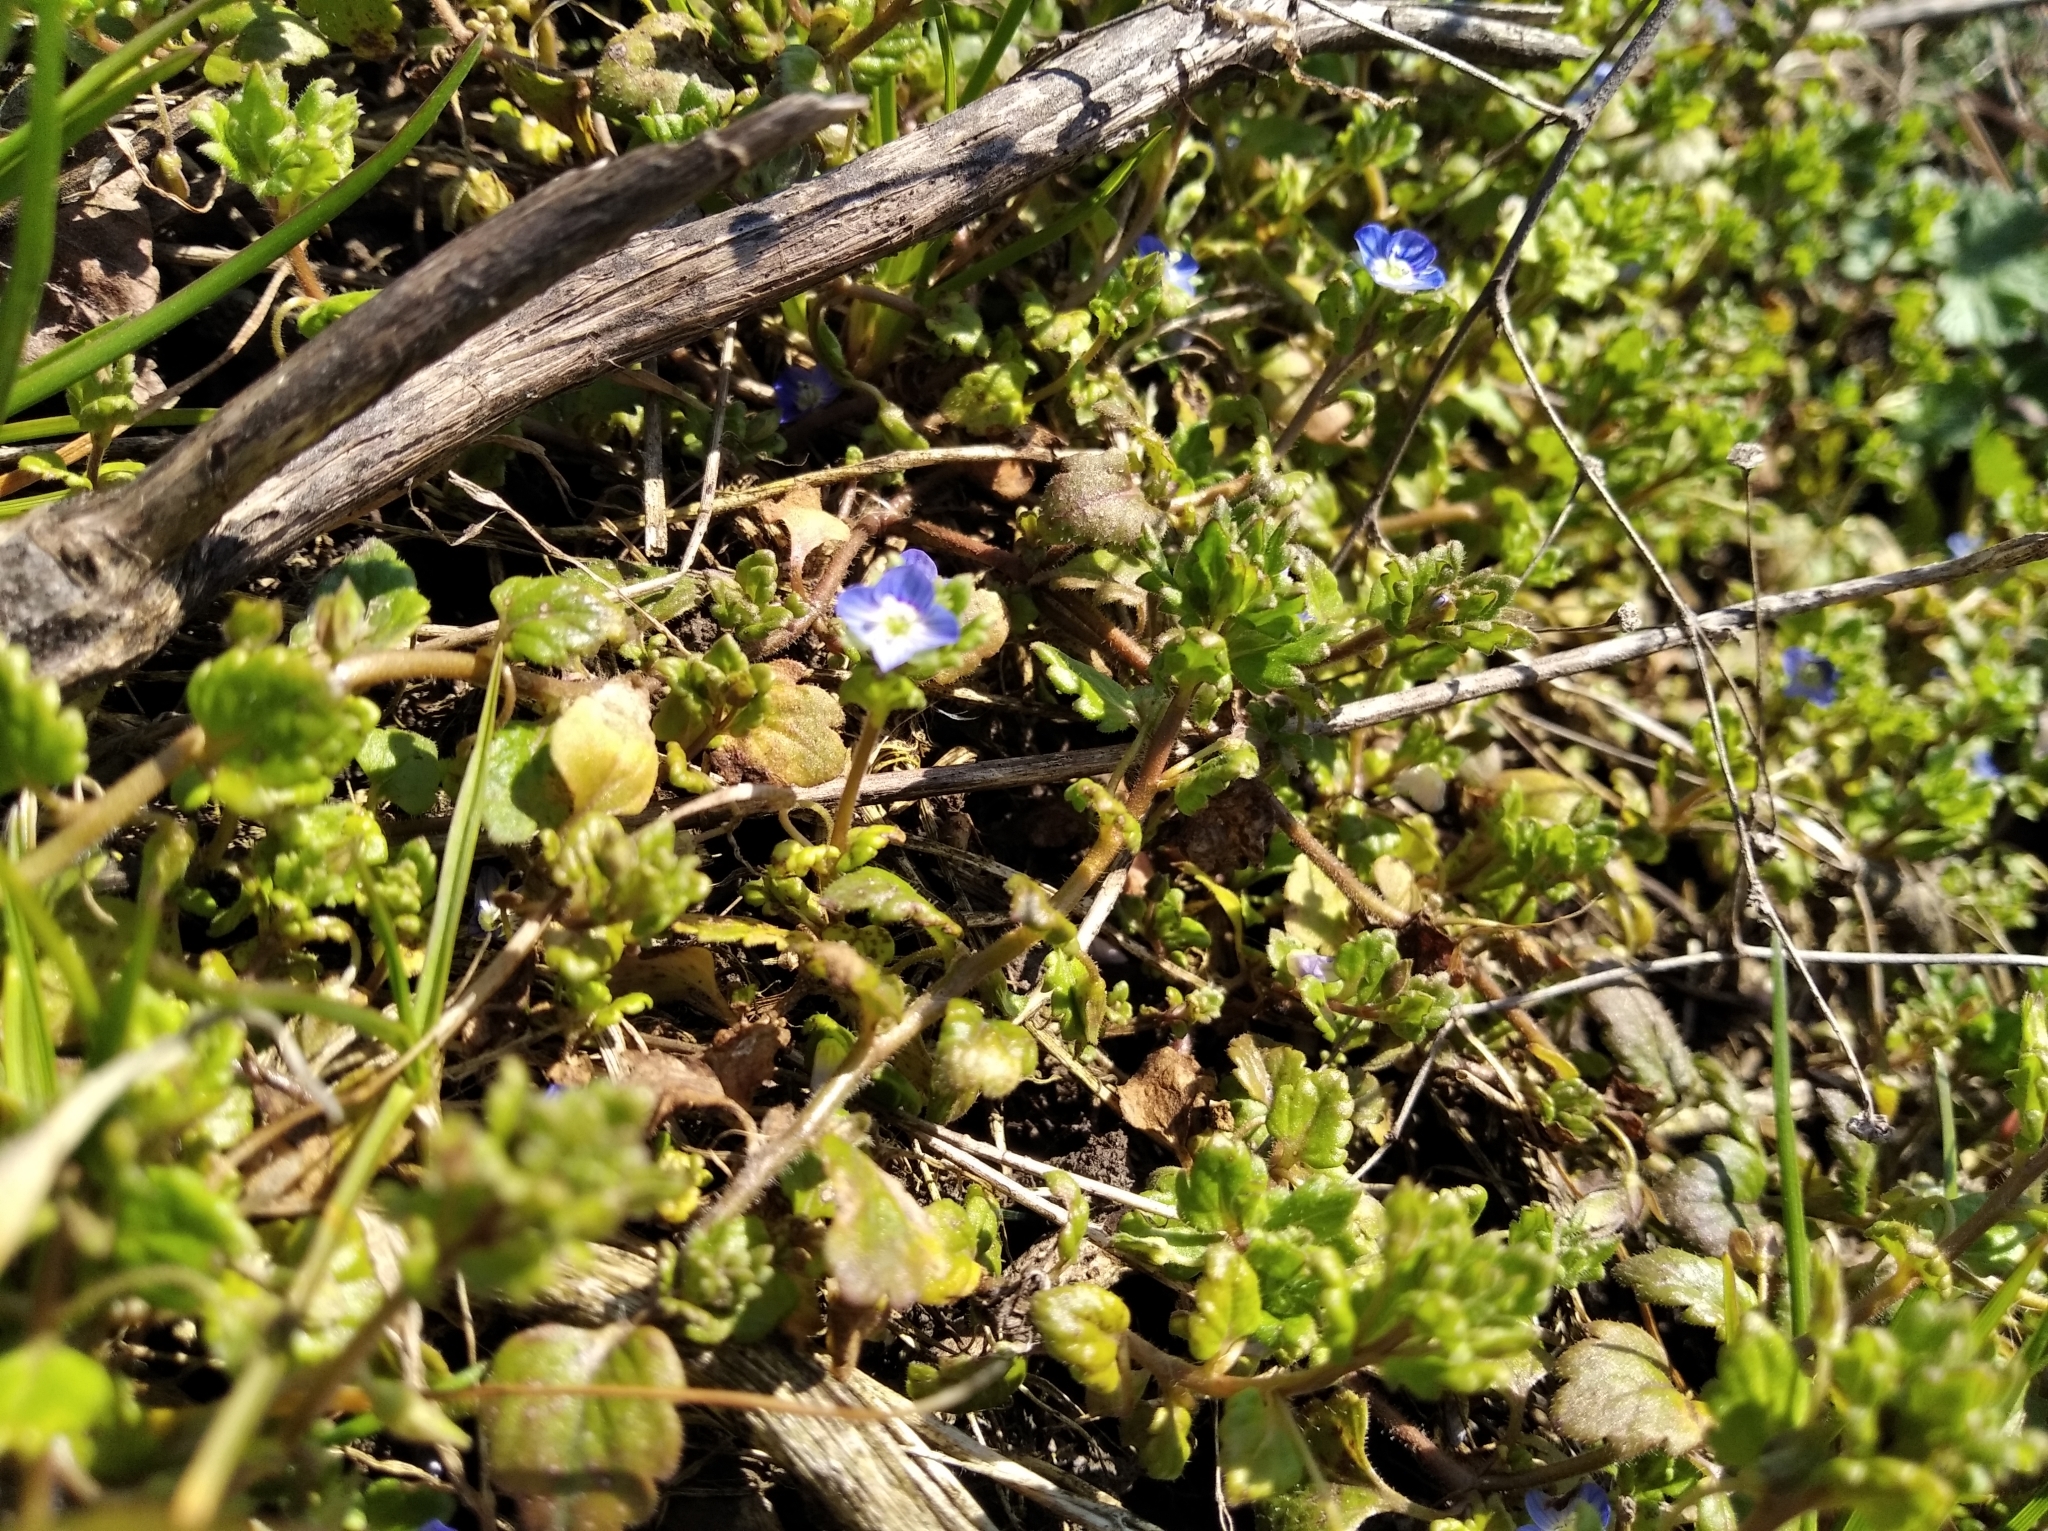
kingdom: Plantae
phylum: Tracheophyta
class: Magnoliopsida
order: Lamiales
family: Plantaginaceae
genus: Veronica
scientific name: Veronica polita
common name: Grey field-speedwell
